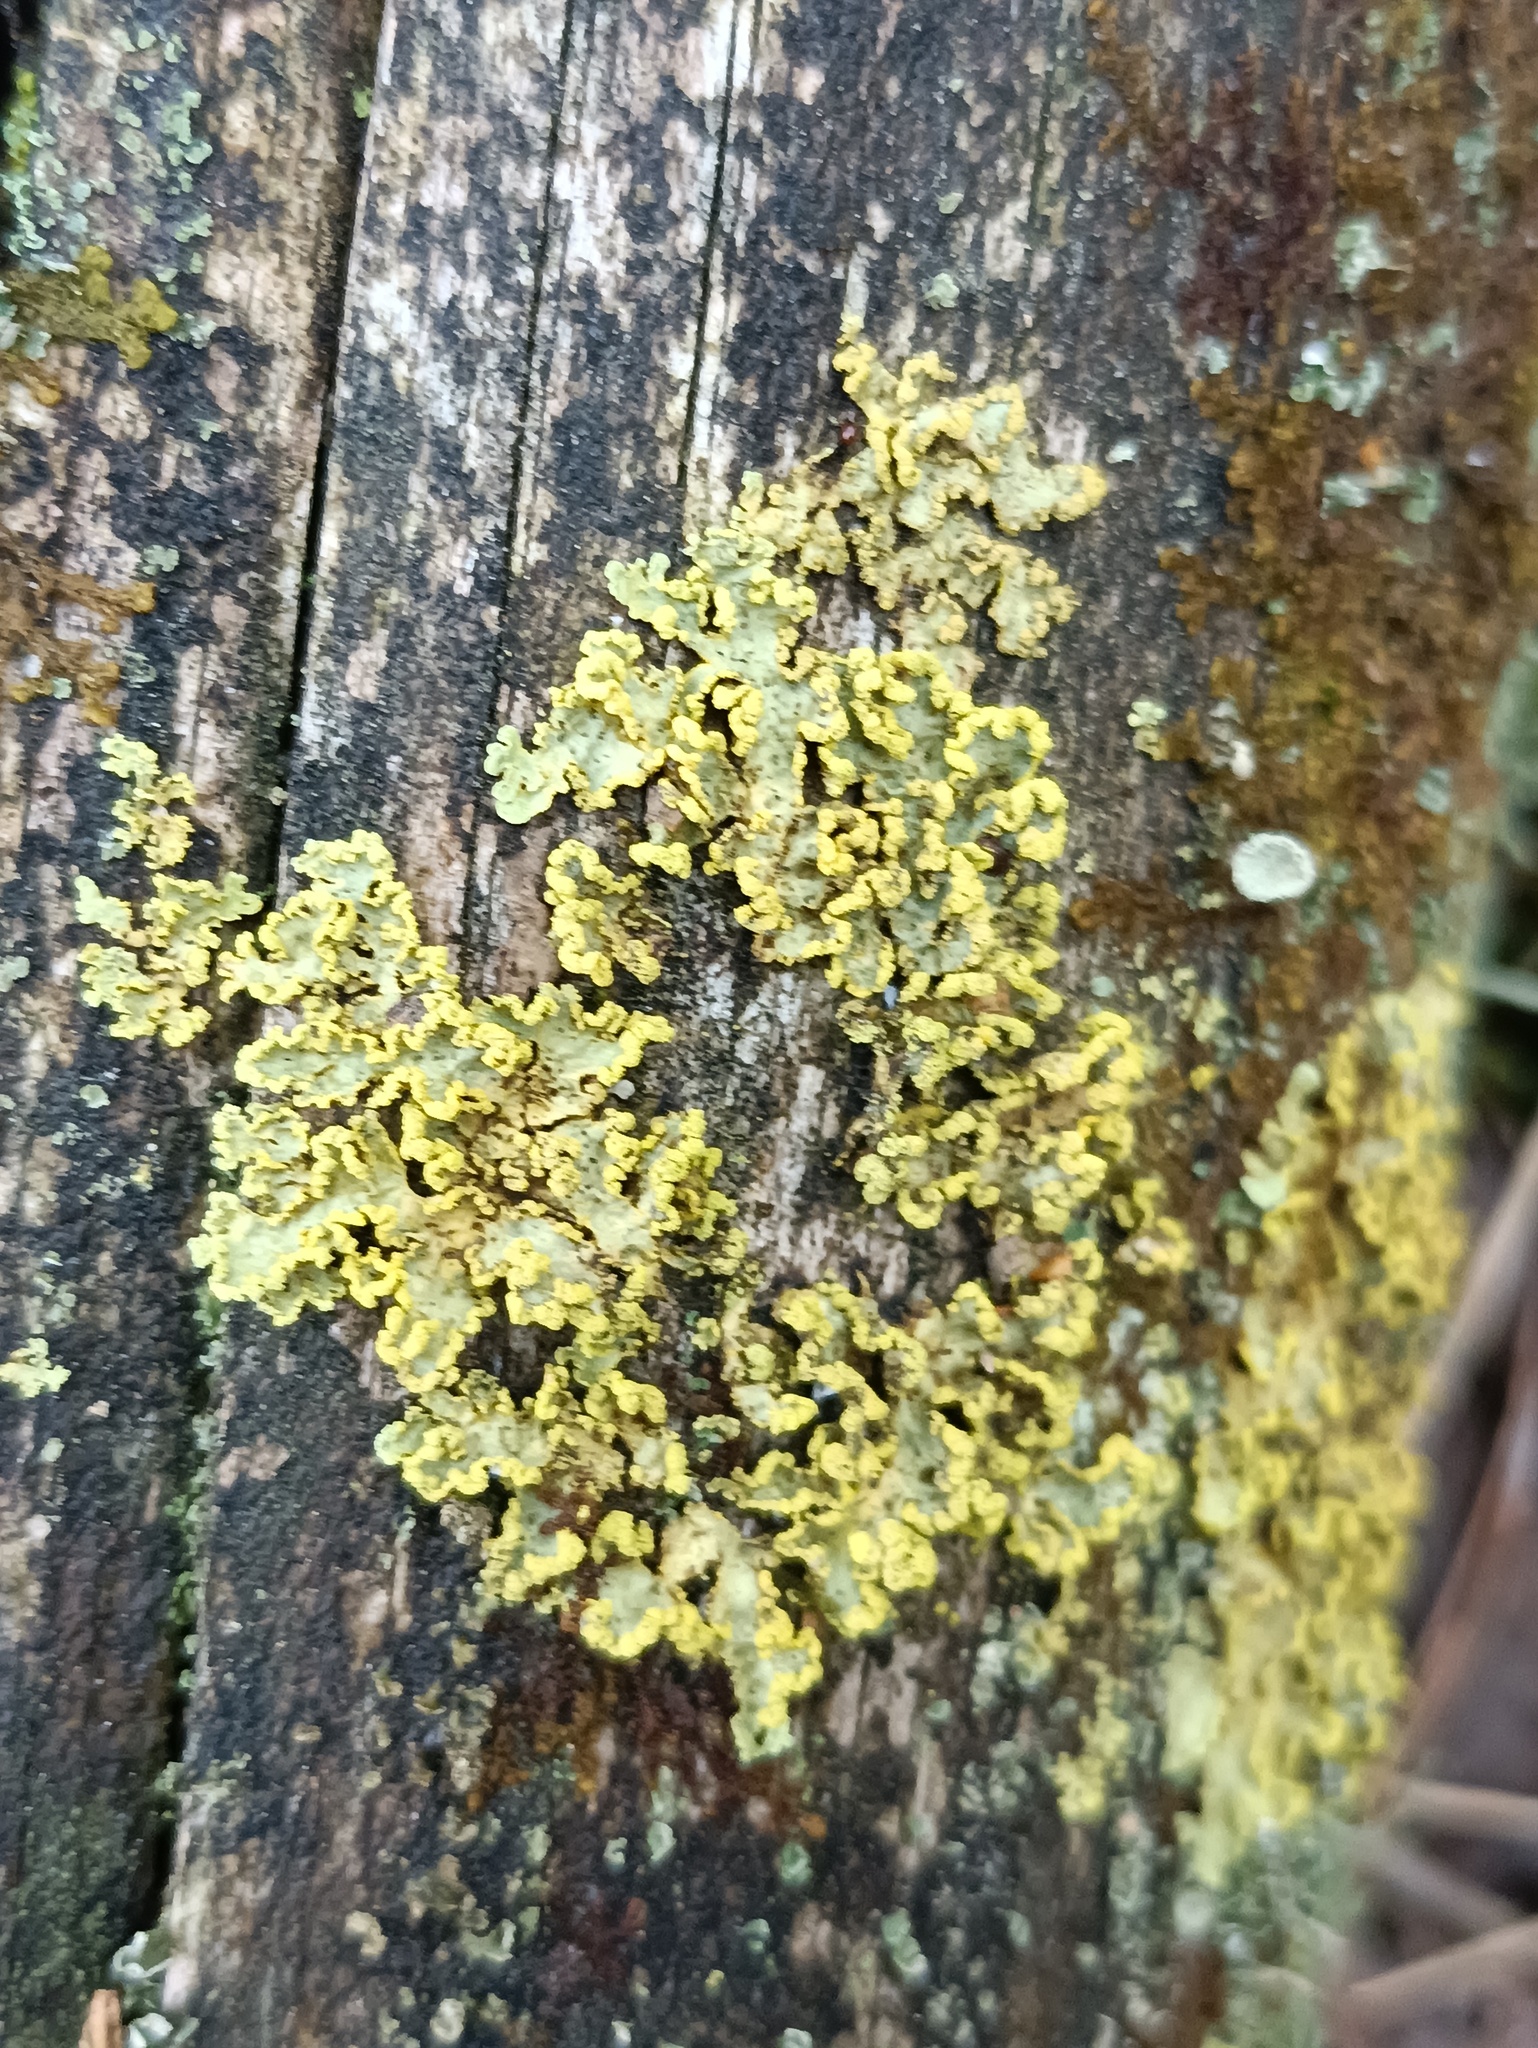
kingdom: Fungi
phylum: Ascomycota
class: Lecanoromycetes
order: Lecanorales
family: Parmeliaceae
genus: Vulpicida
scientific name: Vulpicida pinastri
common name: Powdered sunshine lichen
